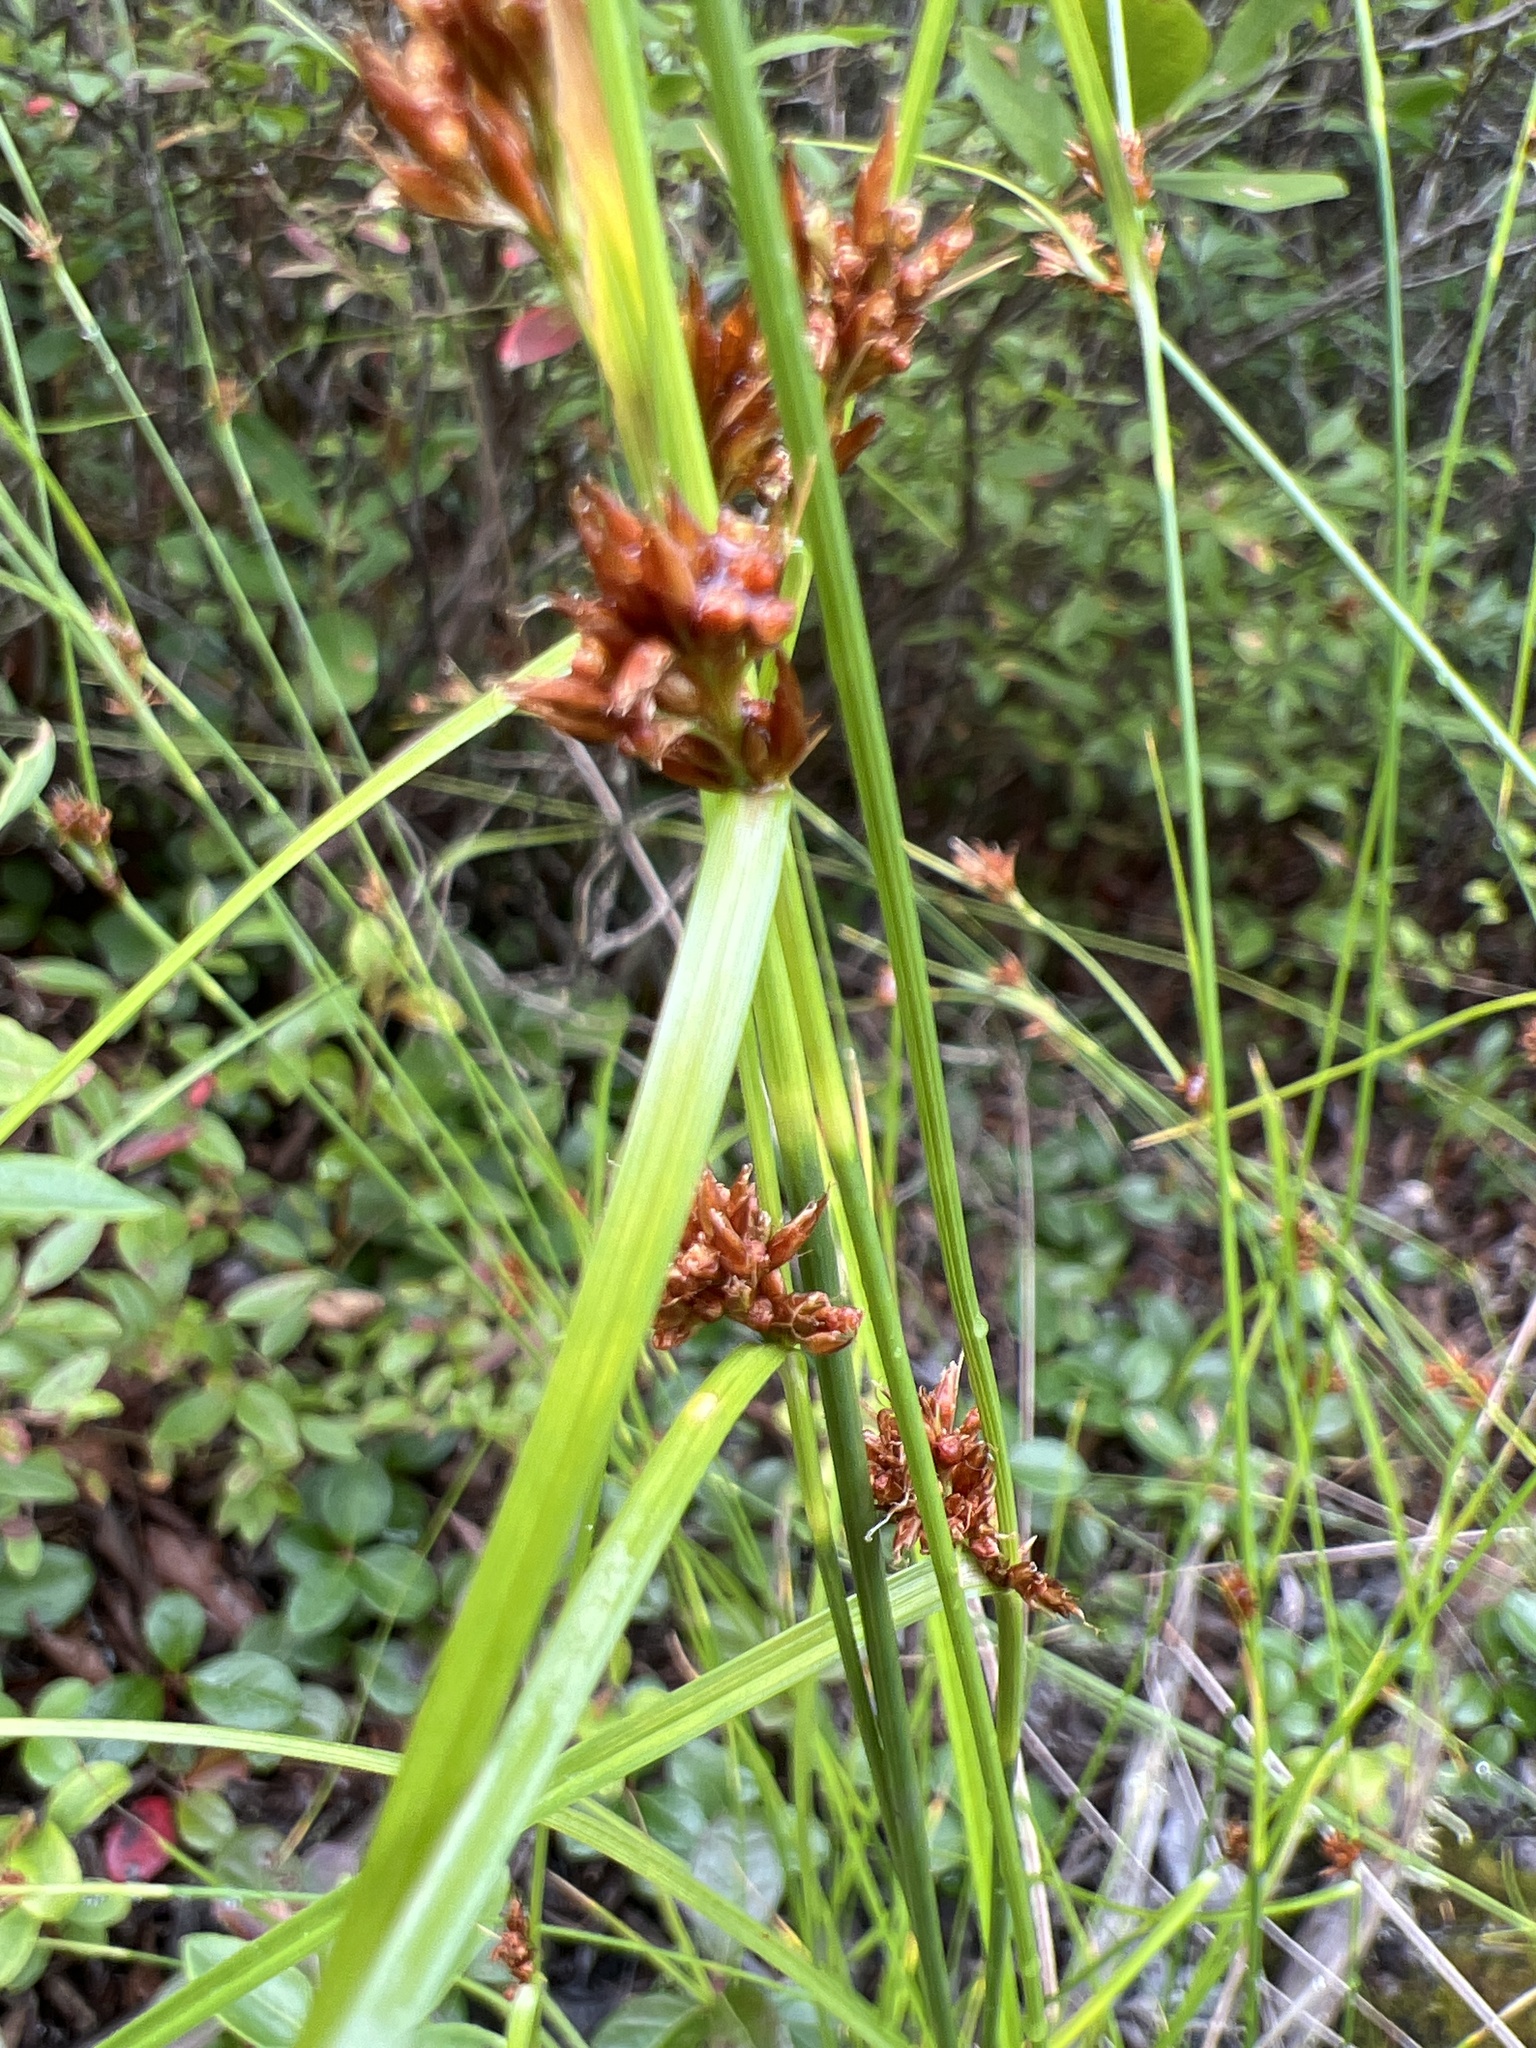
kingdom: Plantae
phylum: Tracheophyta
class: Liliopsida
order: Poales
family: Cyperaceae
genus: Rhynchospora
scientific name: Rhynchospora capitellata
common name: Brownish beaksedge
